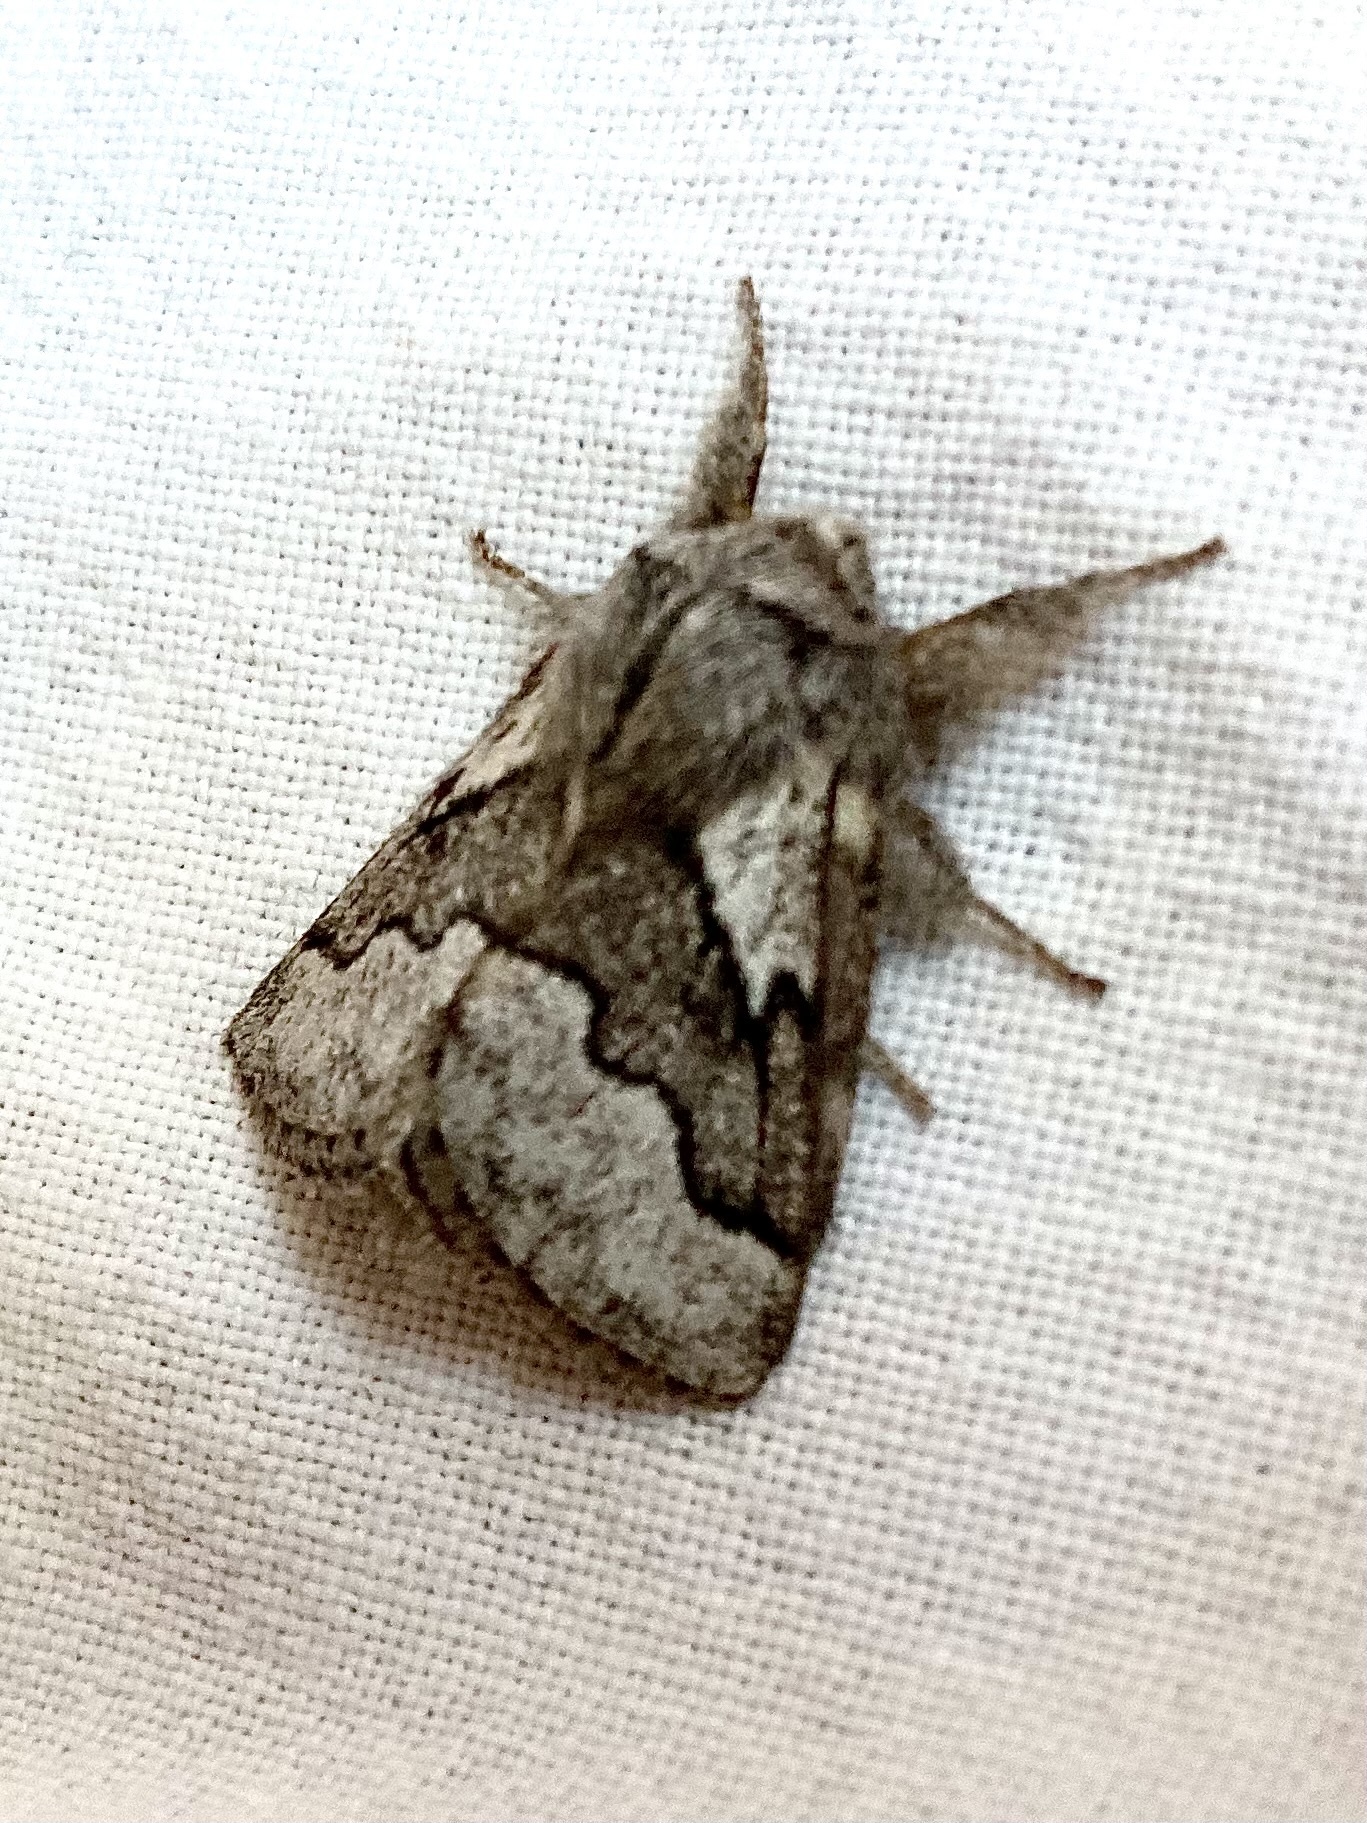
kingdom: Animalia
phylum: Arthropoda
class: Insecta
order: Lepidoptera
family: Lasiocampidae
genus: Trichiura
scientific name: Trichiura crataegi
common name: Pale eggar
